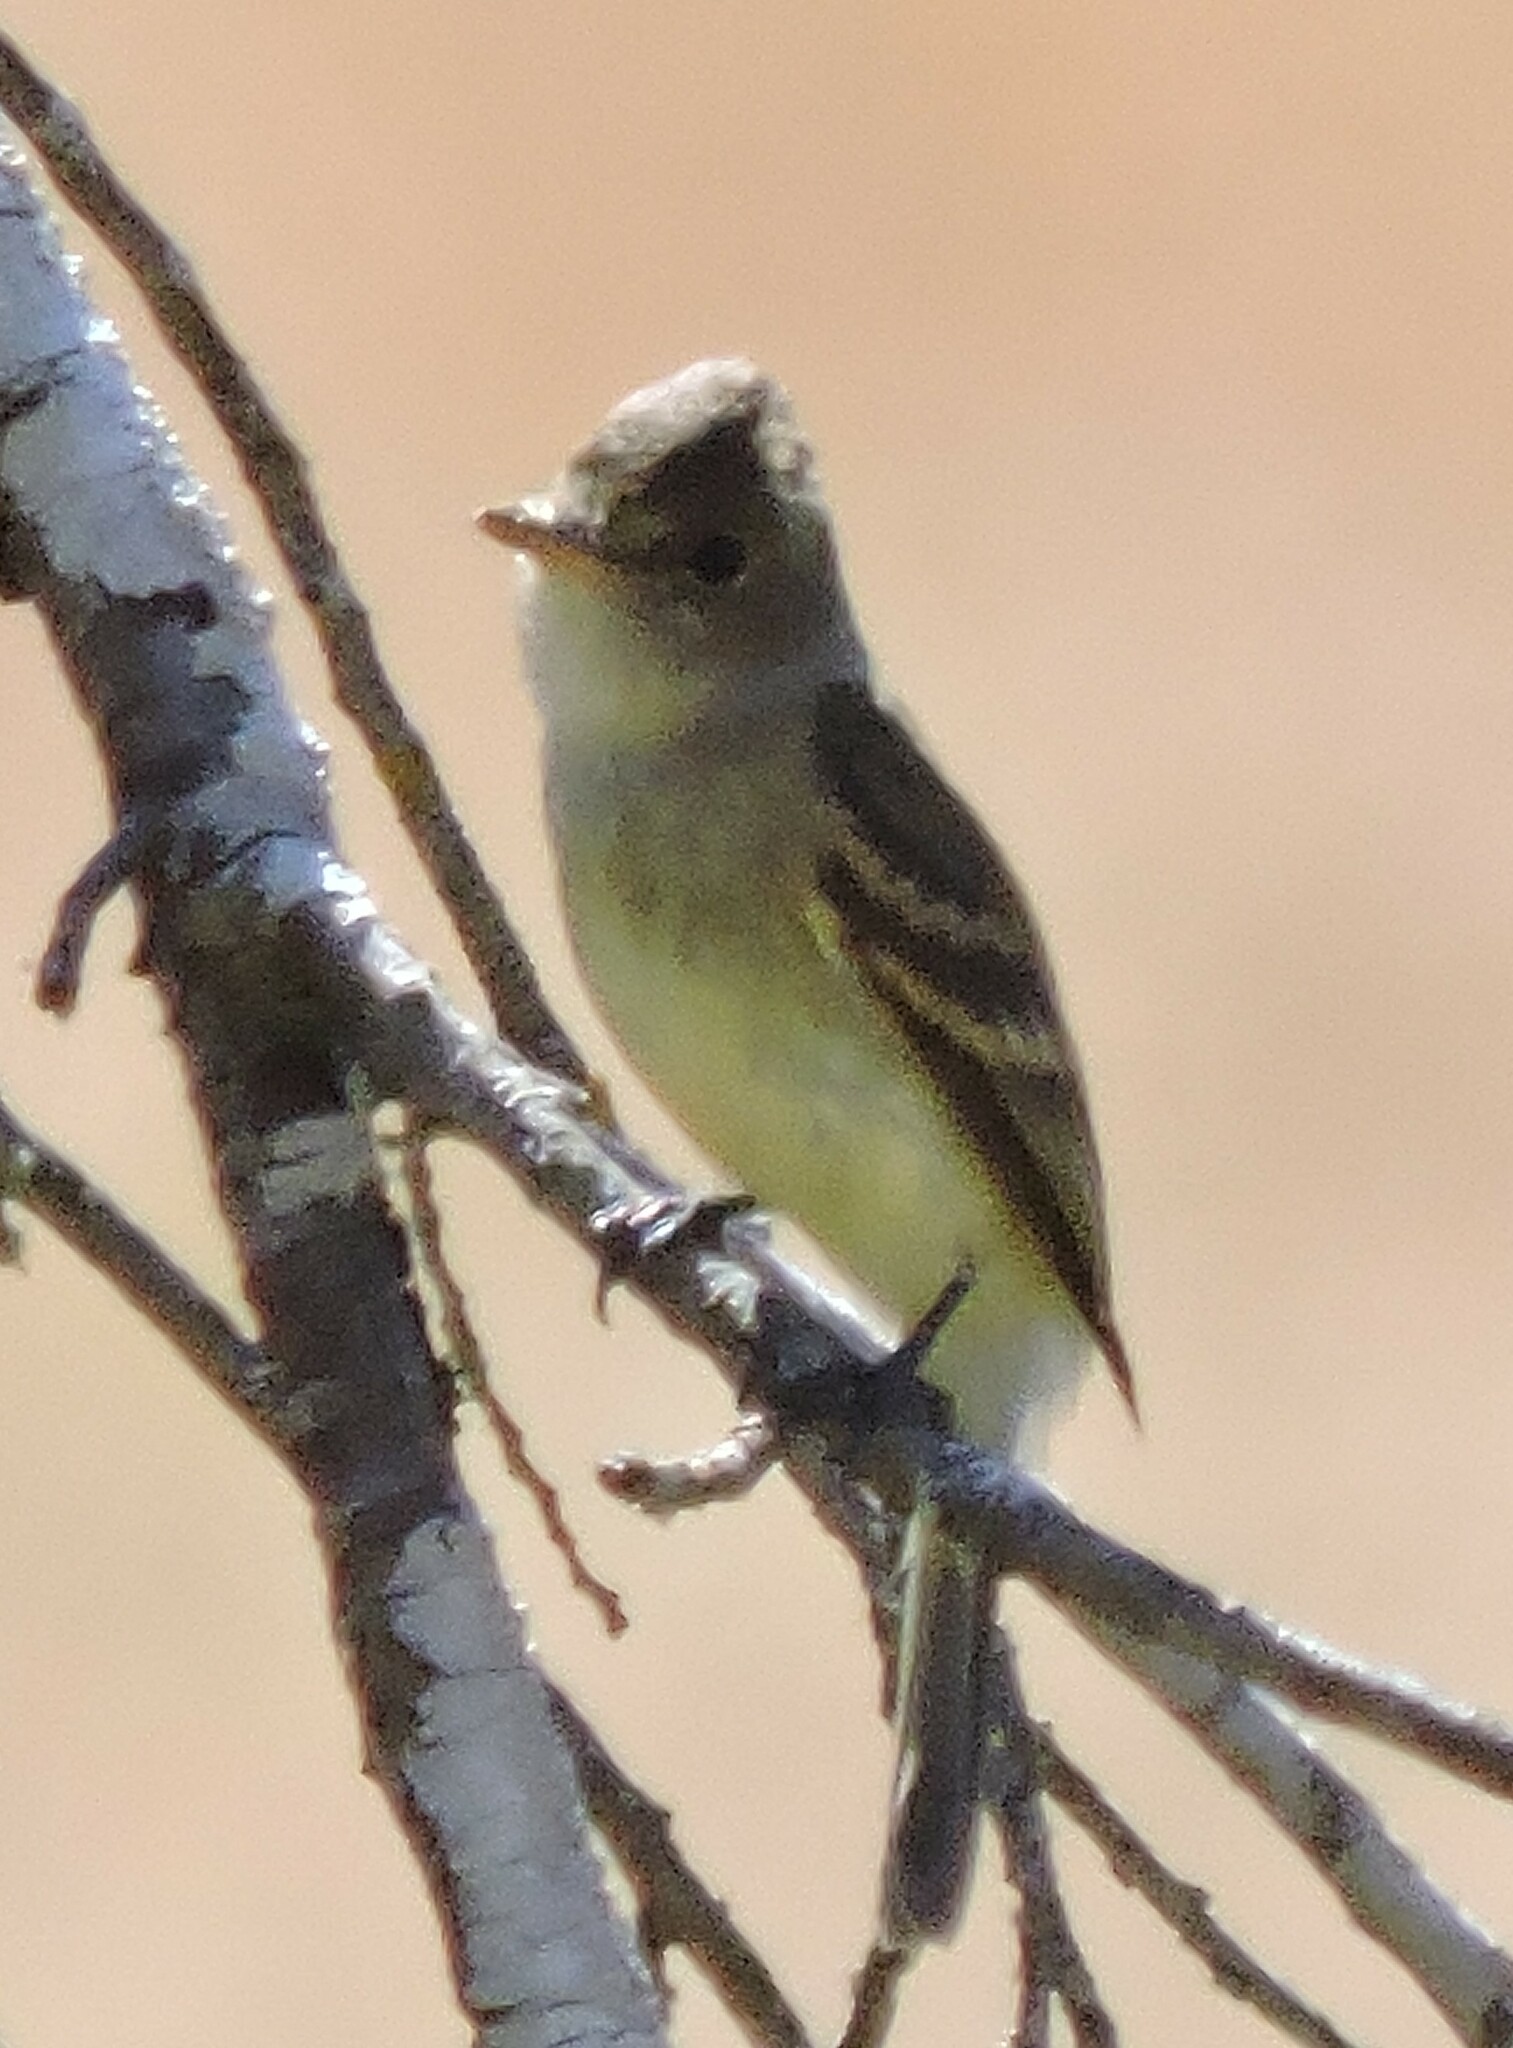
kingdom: Animalia
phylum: Chordata
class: Aves
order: Passeriformes
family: Tyrannidae
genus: Empidonax
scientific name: Empidonax traillii
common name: Willow flycatcher
